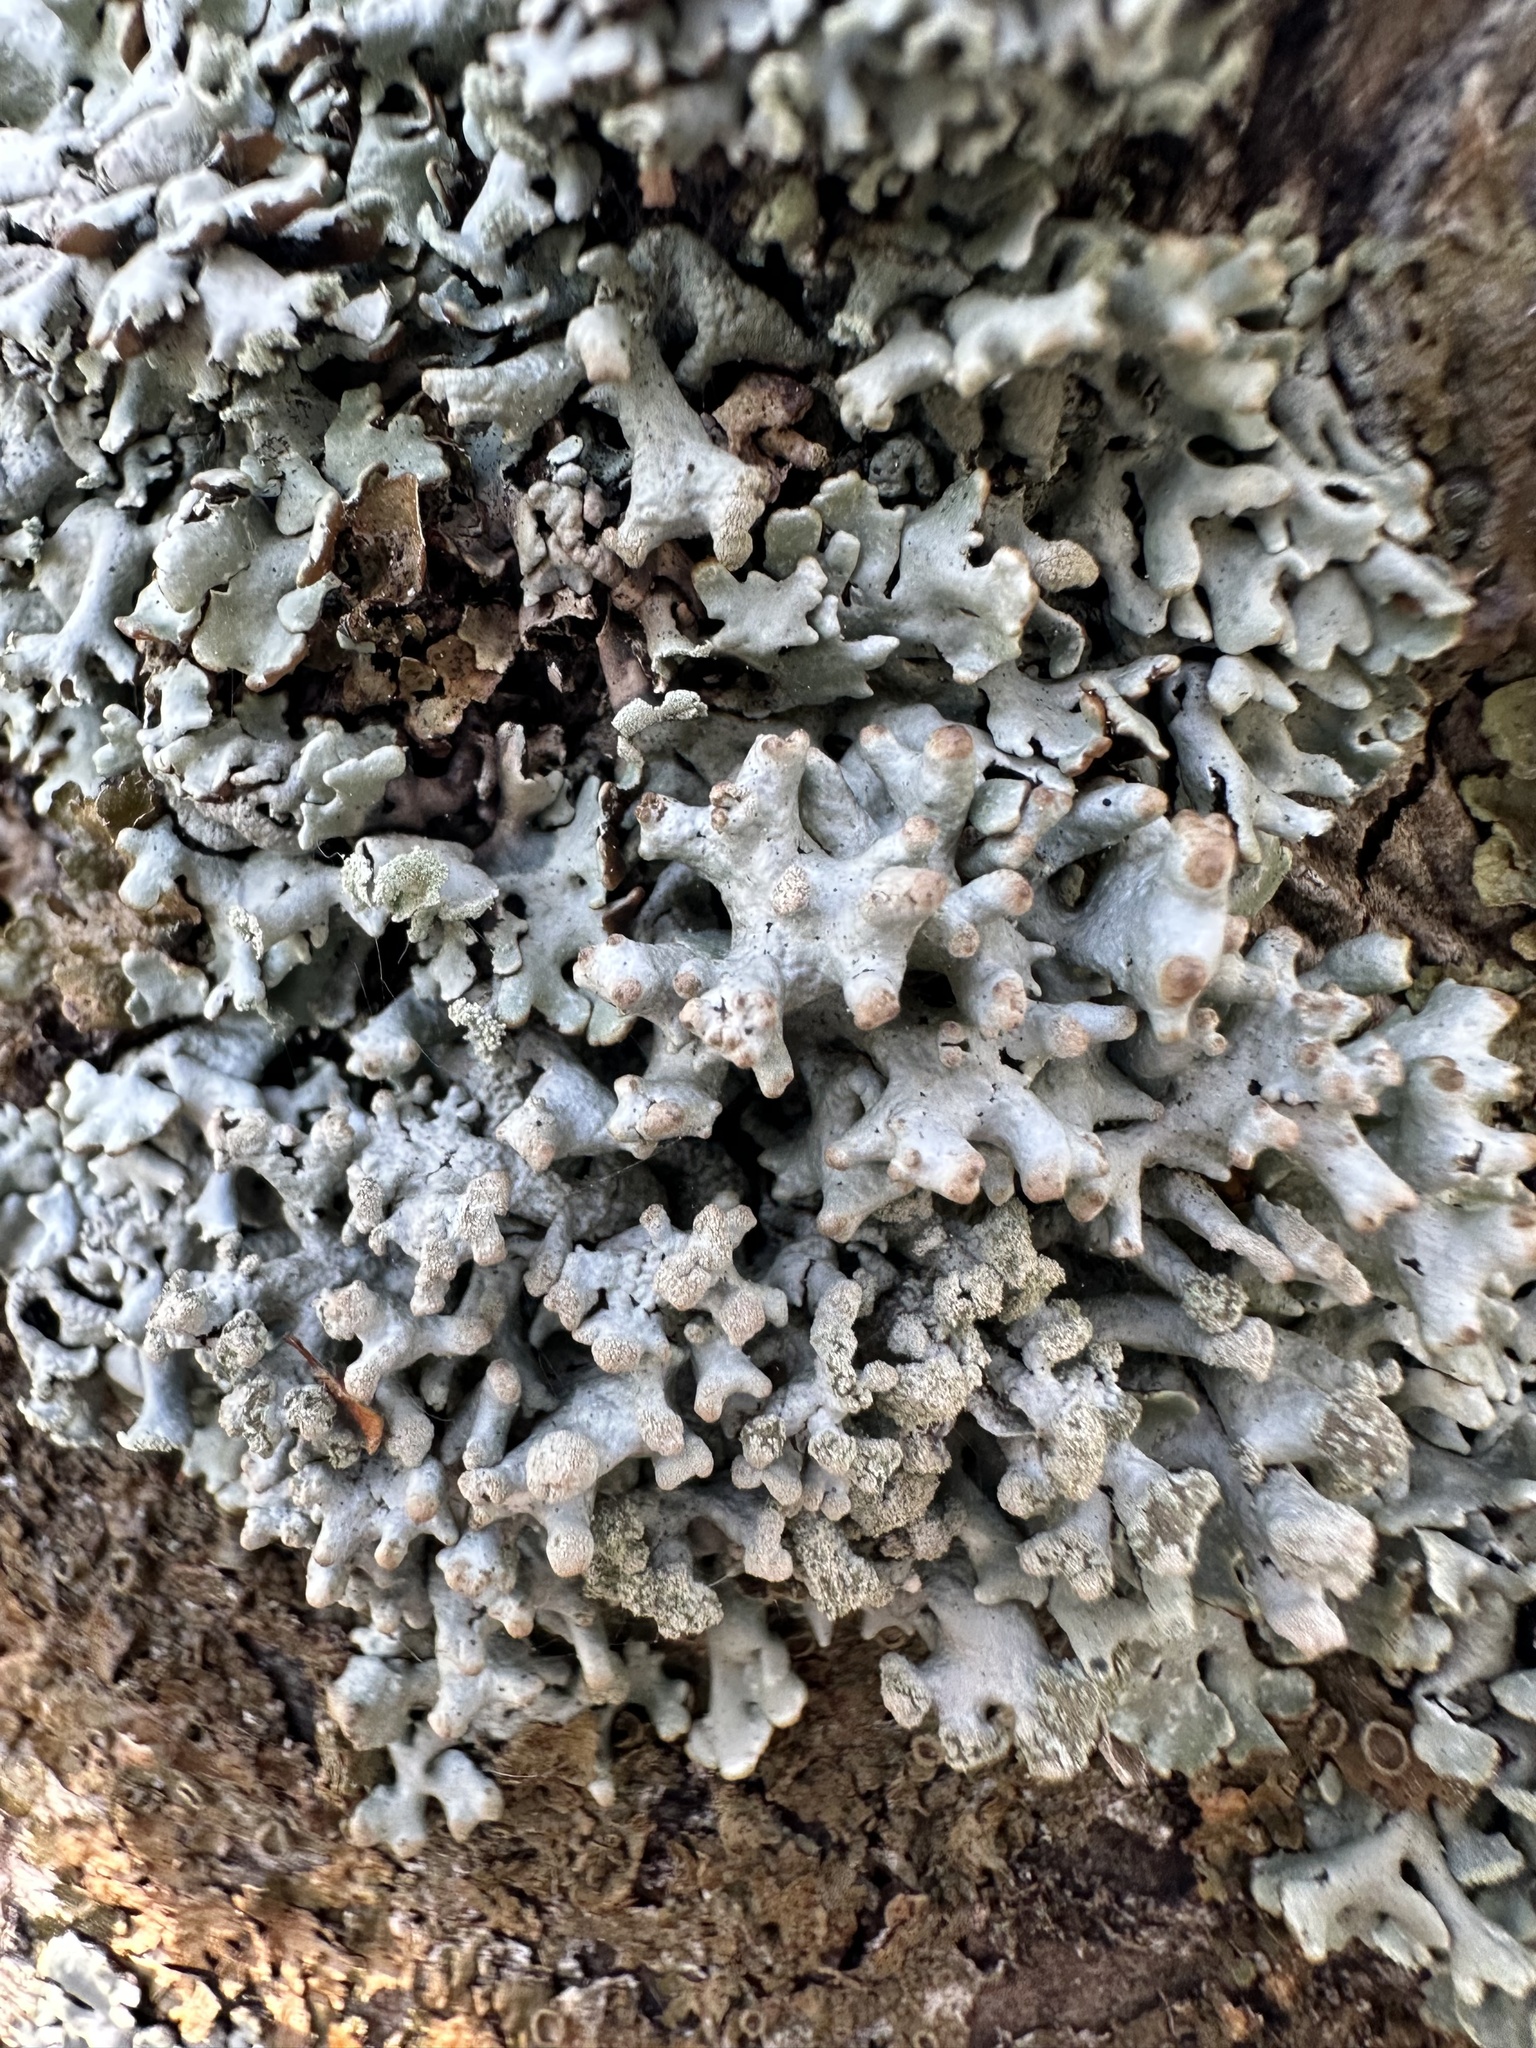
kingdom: Fungi
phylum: Ascomycota
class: Lecanoromycetes
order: Lecanorales
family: Parmeliaceae
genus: Hypogymnia
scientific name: Hypogymnia tubulosa
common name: Powder-headed tube lichen
